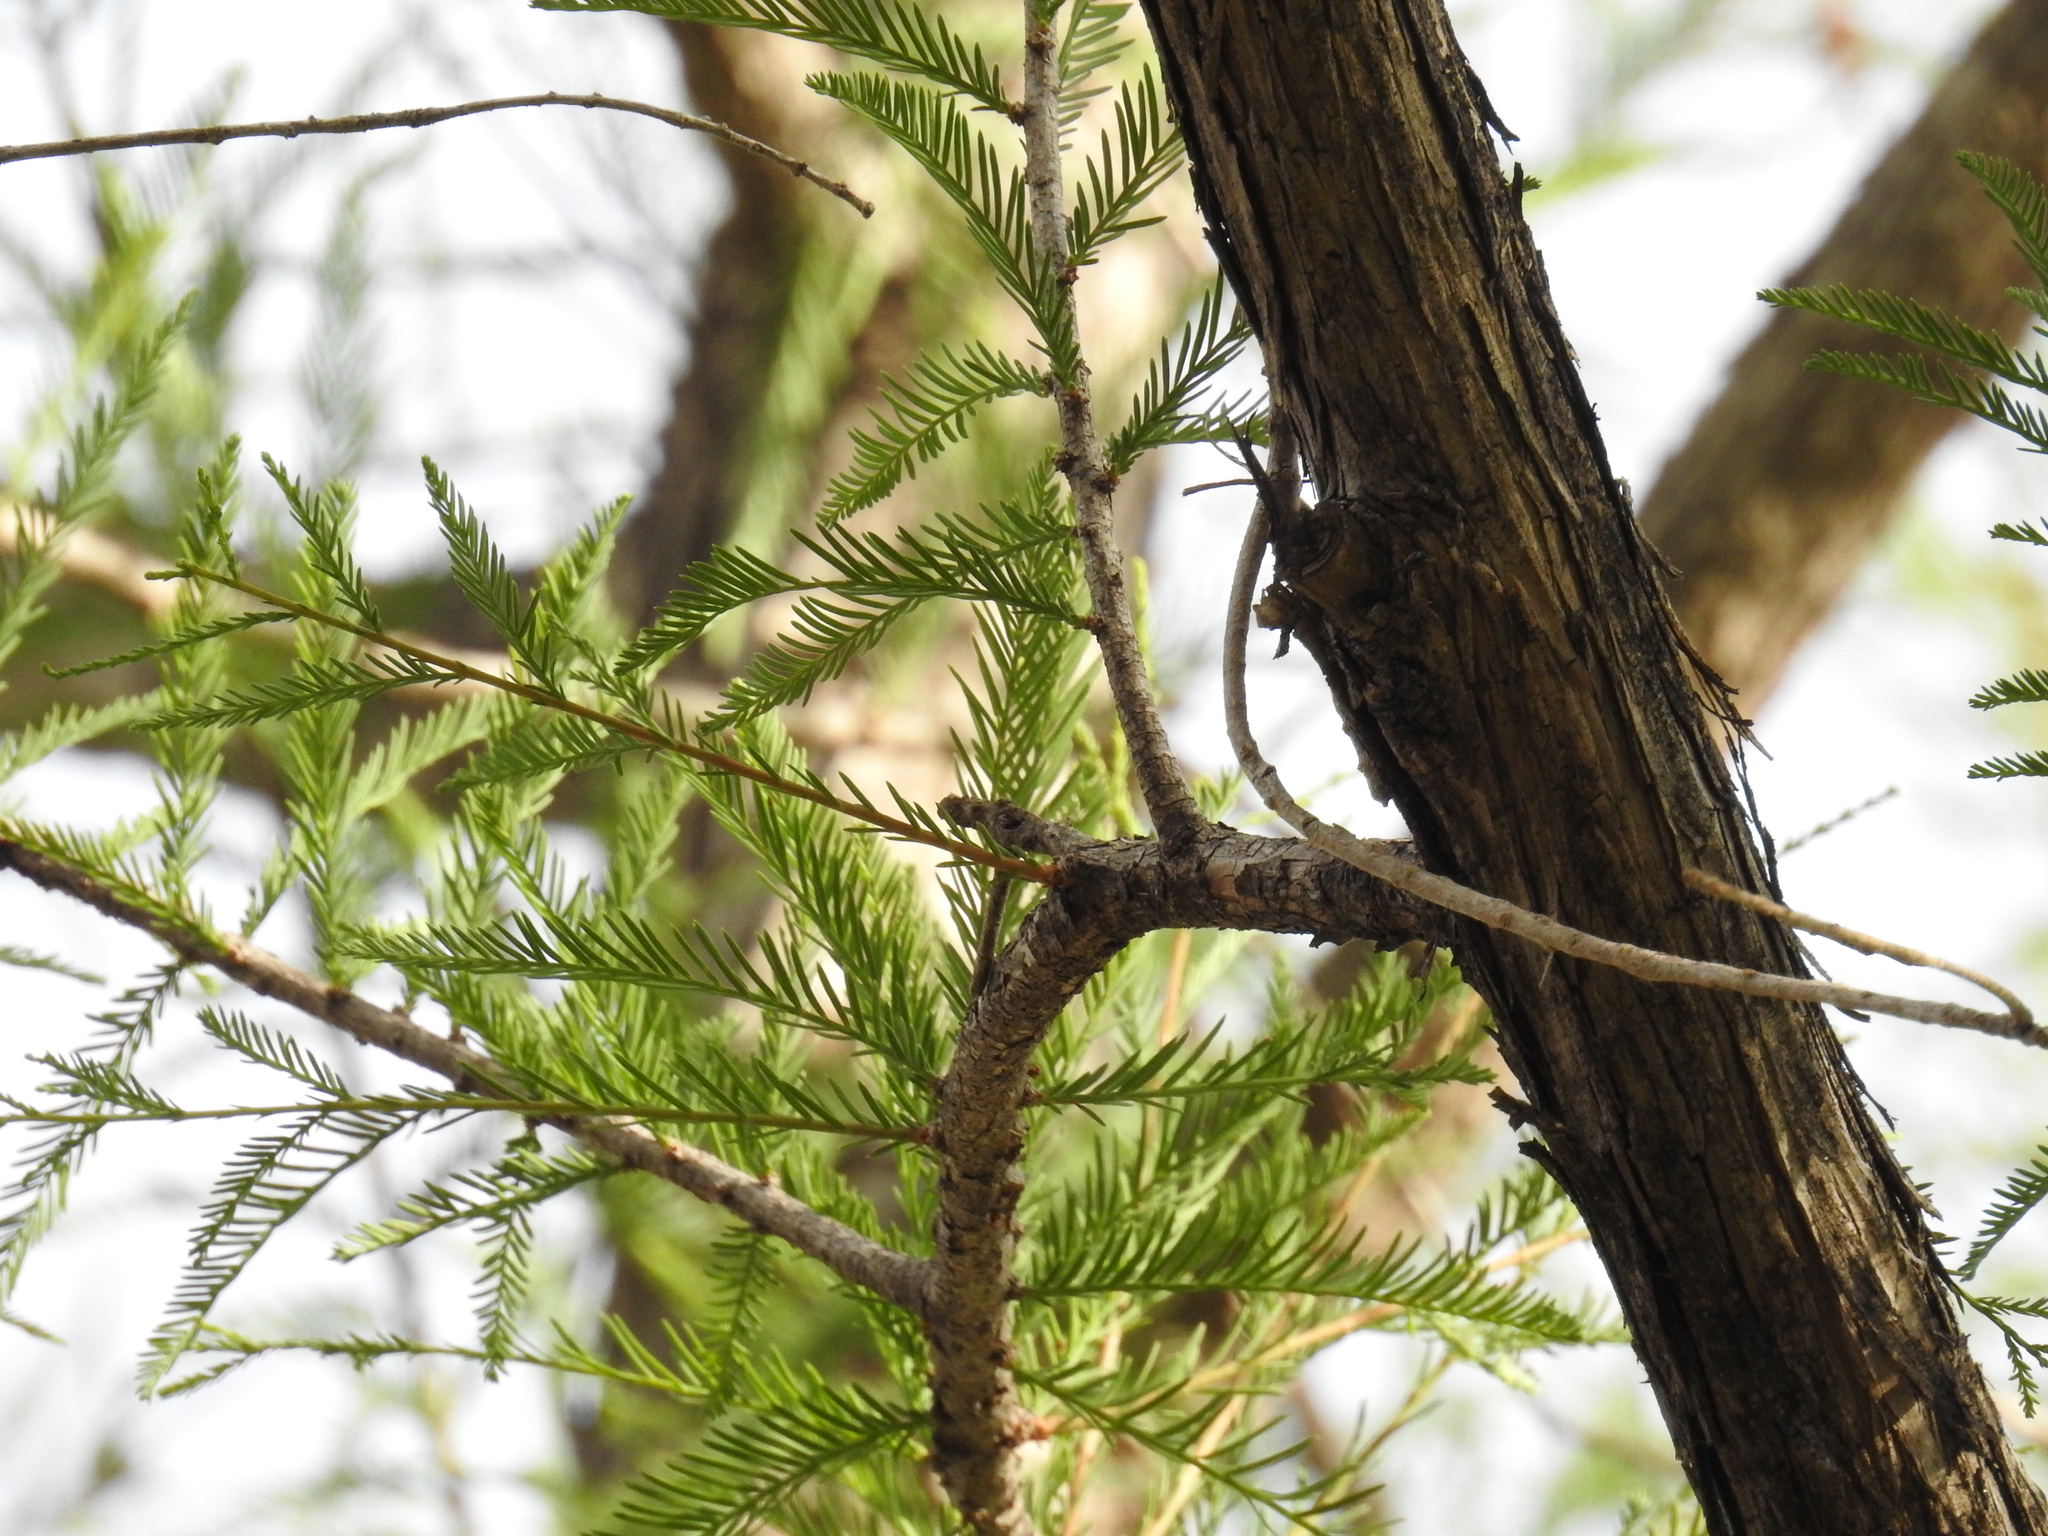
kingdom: Plantae
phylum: Tracheophyta
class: Pinopsida
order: Pinales
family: Cupressaceae
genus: Taxodium
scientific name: Taxodium mucronatum
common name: Montezume bald cypress
